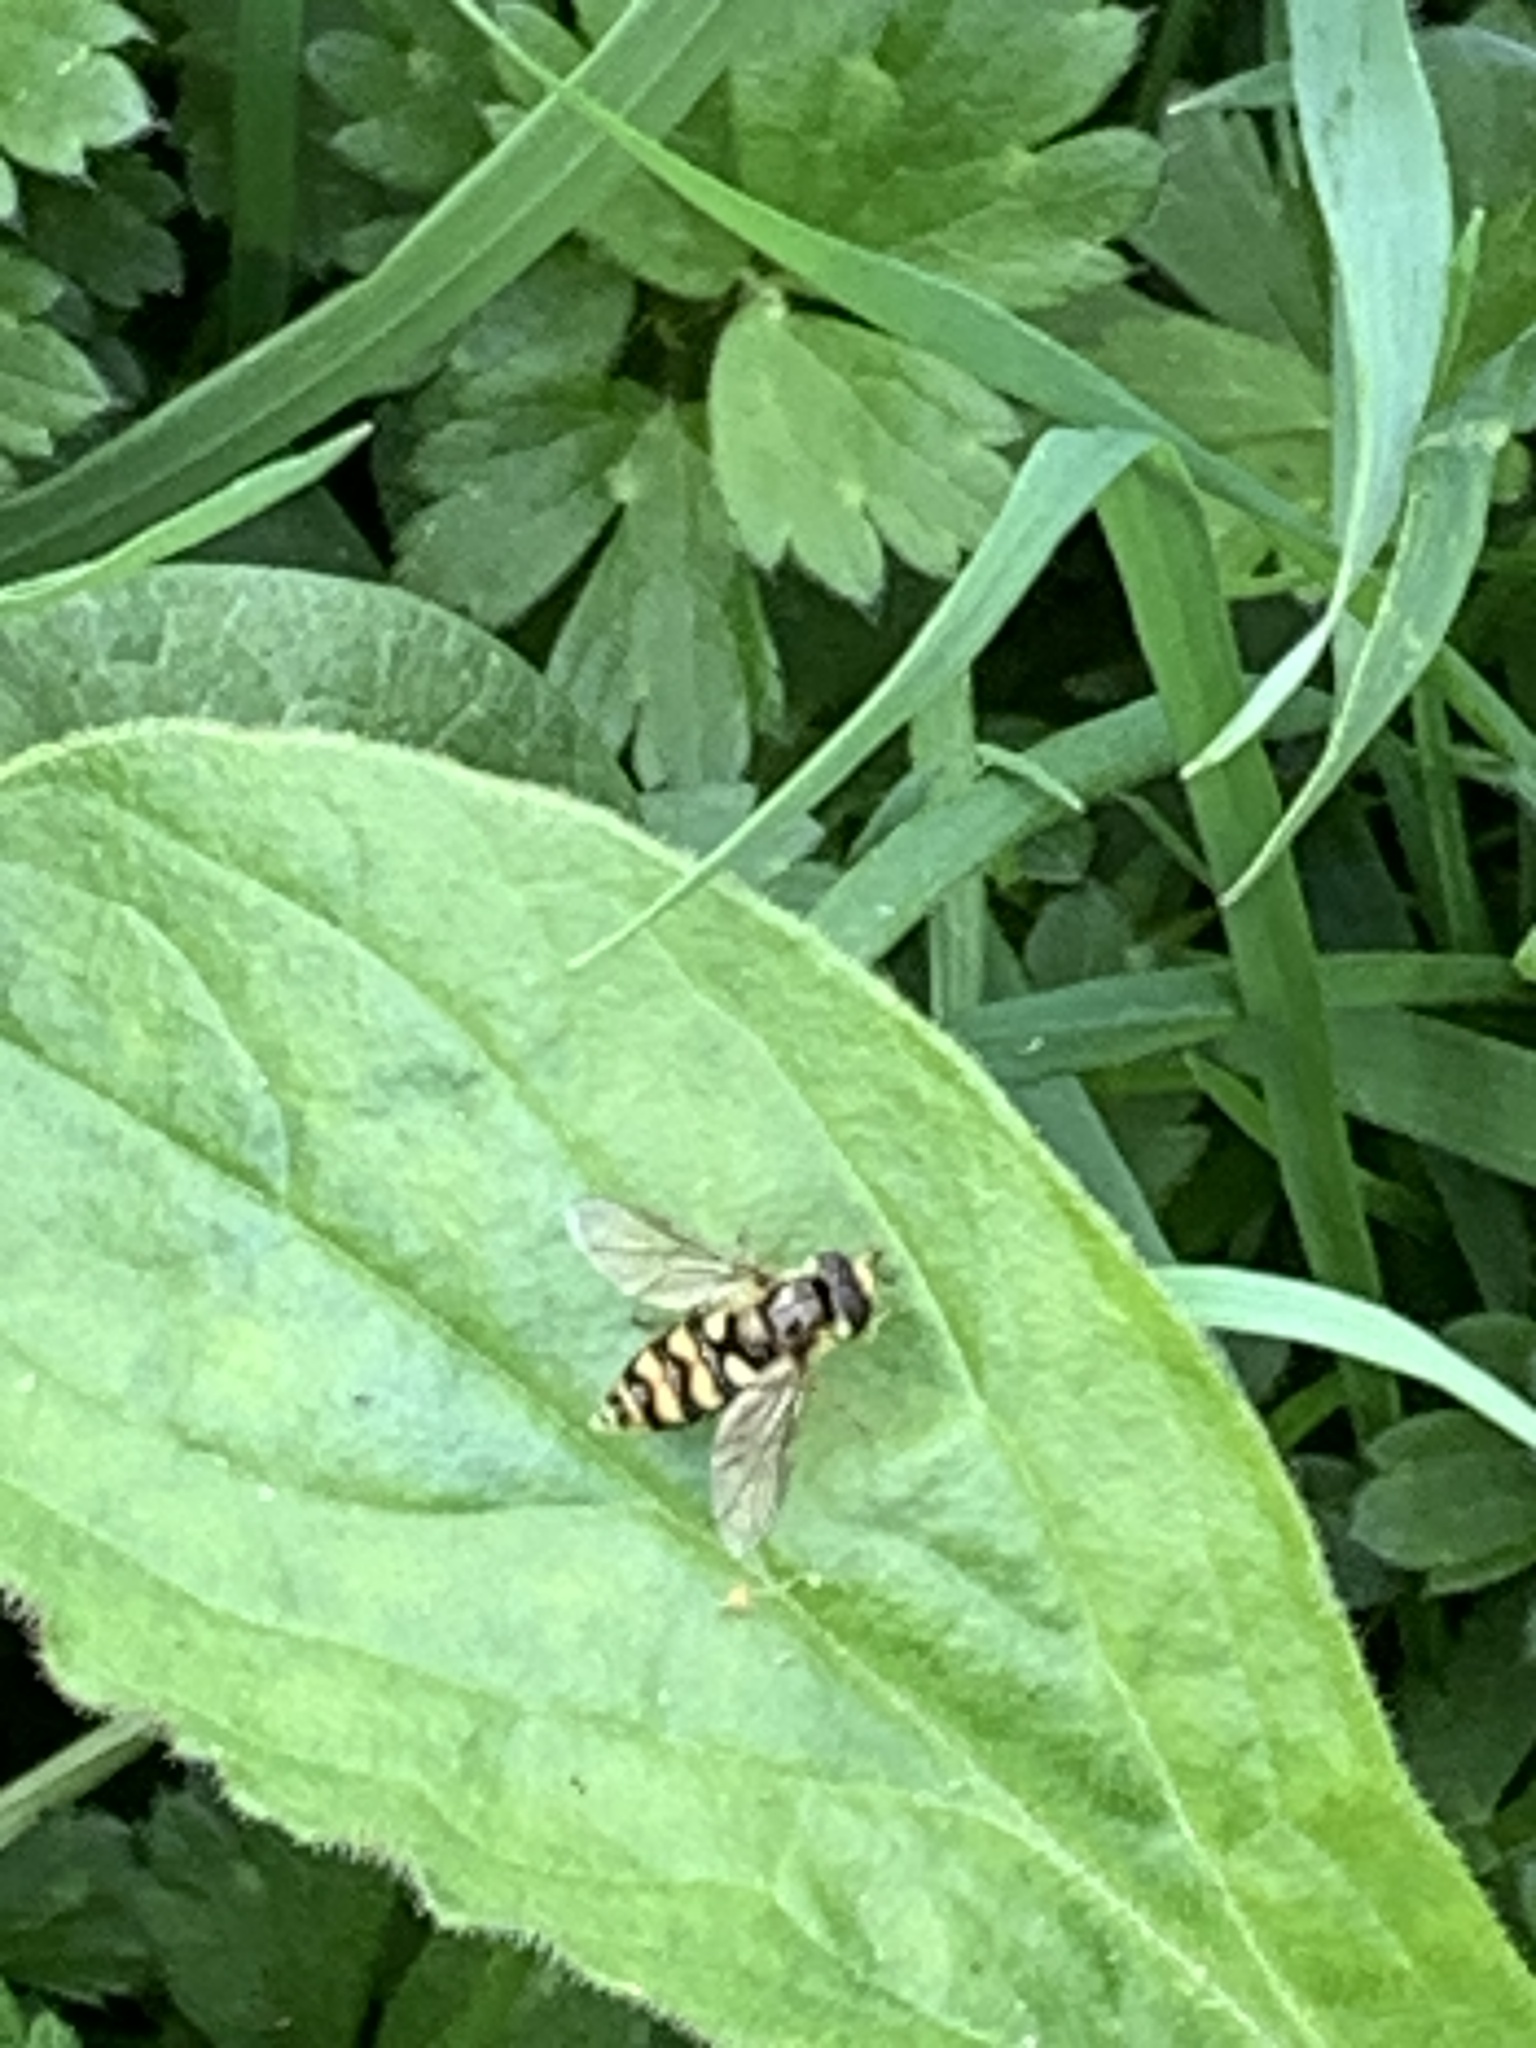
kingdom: Animalia
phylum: Arthropoda
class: Insecta
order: Diptera
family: Syrphidae
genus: Eupeodes
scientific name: Eupeodes latifasciatus
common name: Variable aphideater
